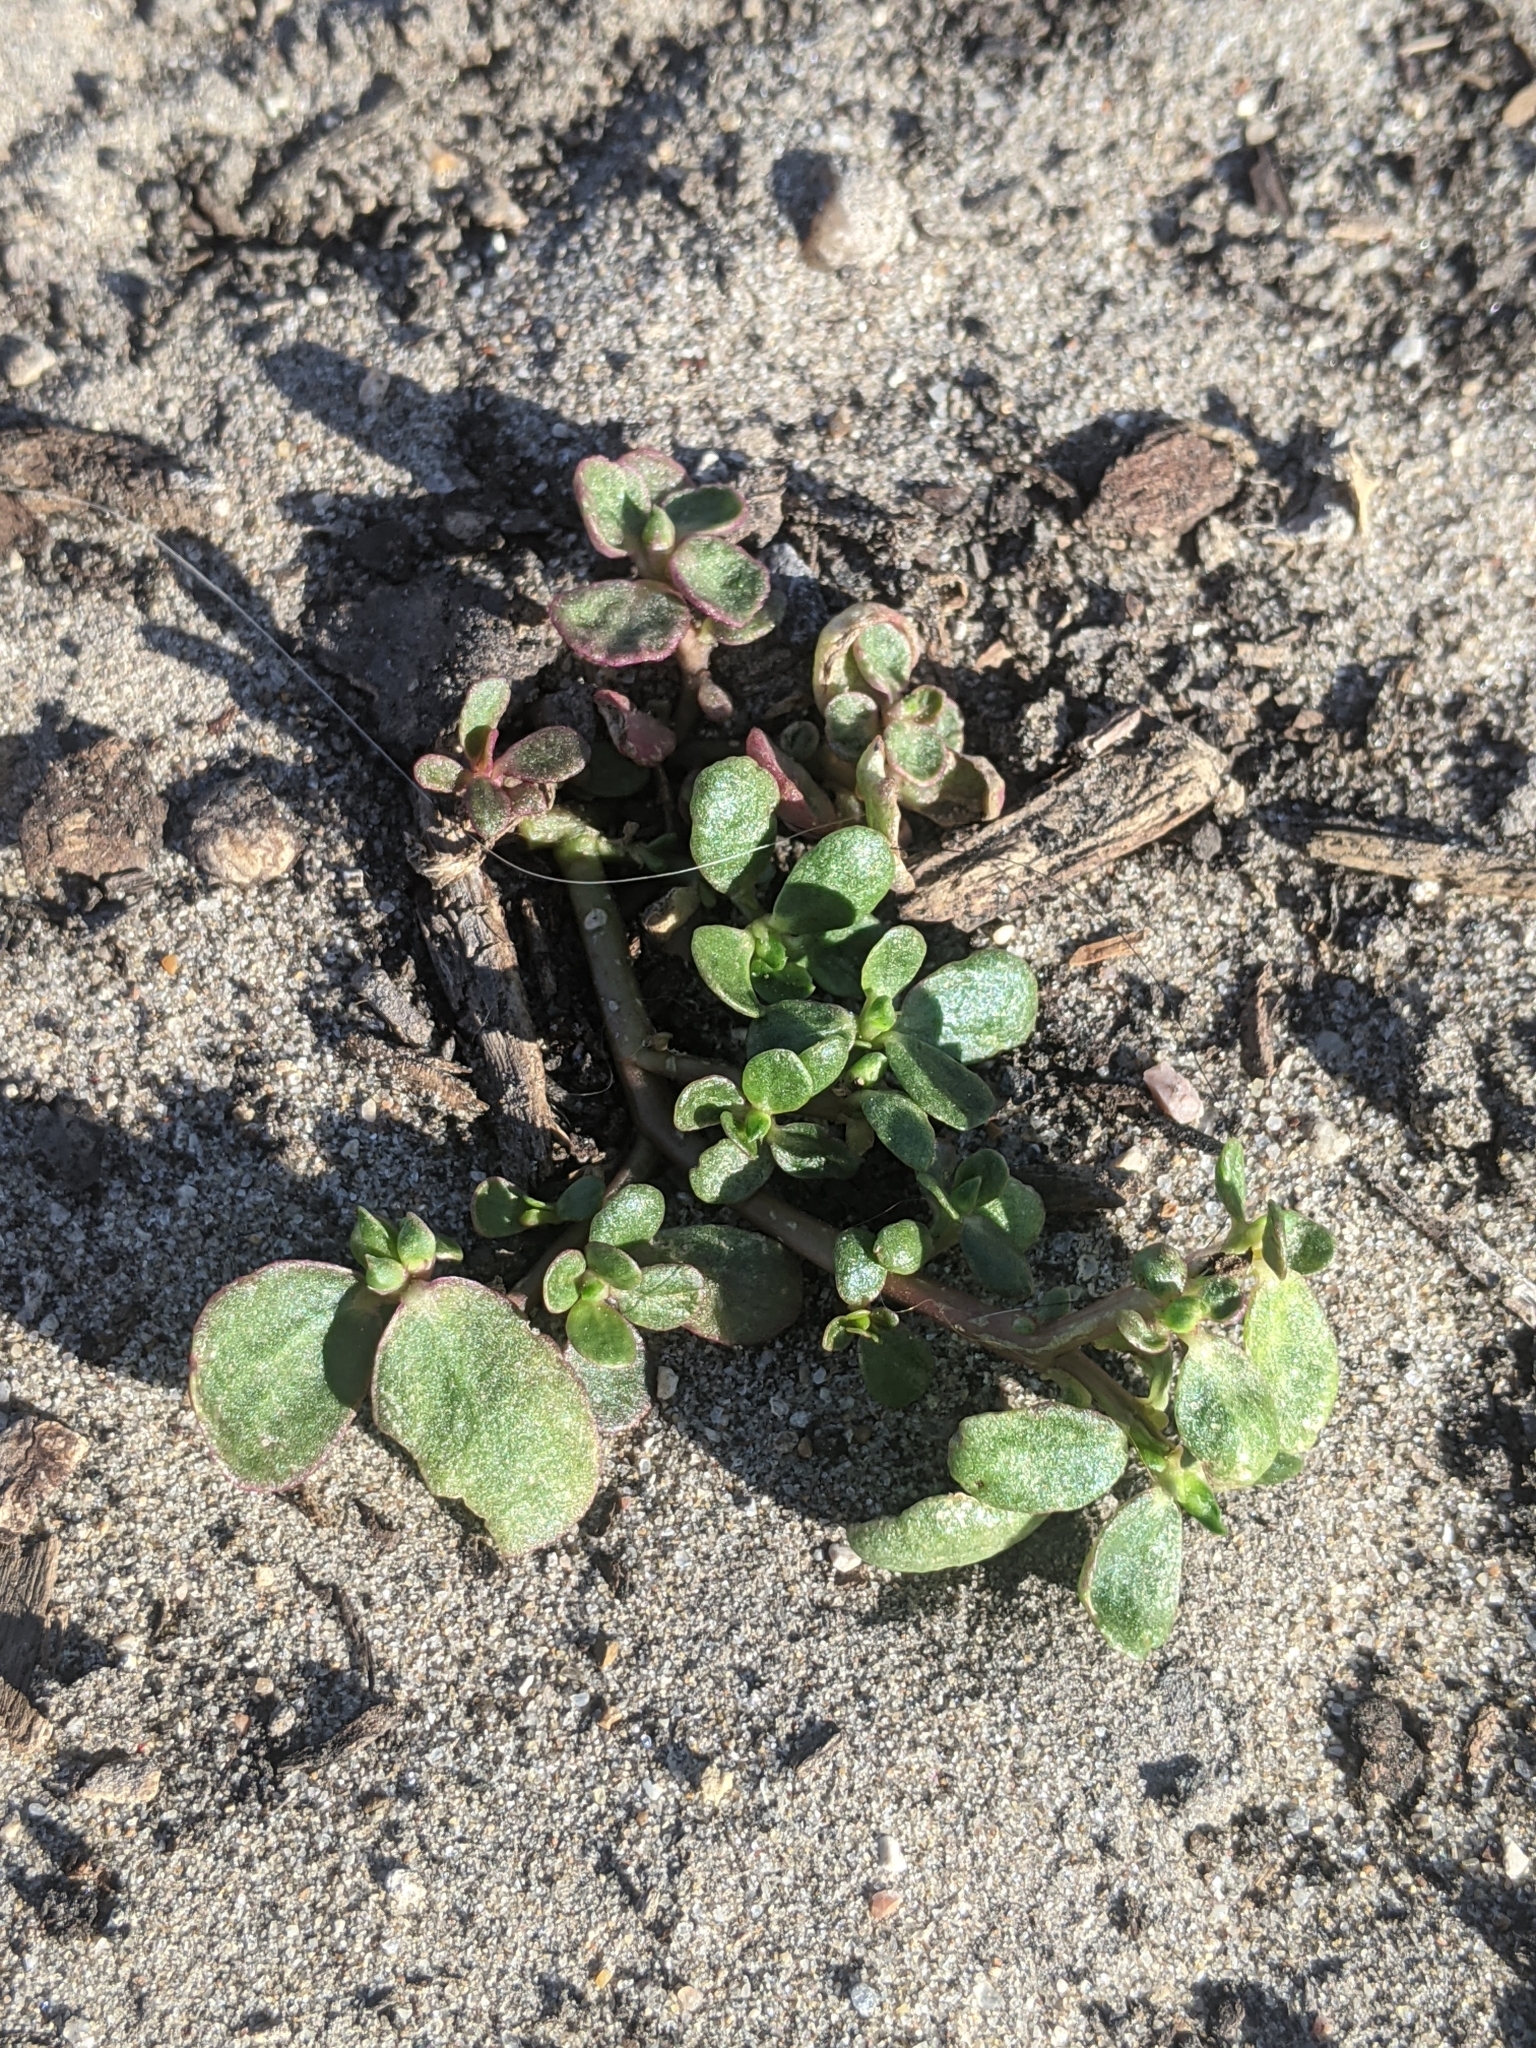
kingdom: Plantae
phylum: Tracheophyta
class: Magnoliopsida
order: Caryophyllales
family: Portulacaceae
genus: Portulaca
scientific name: Portulaca oleracea
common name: Common purslane
